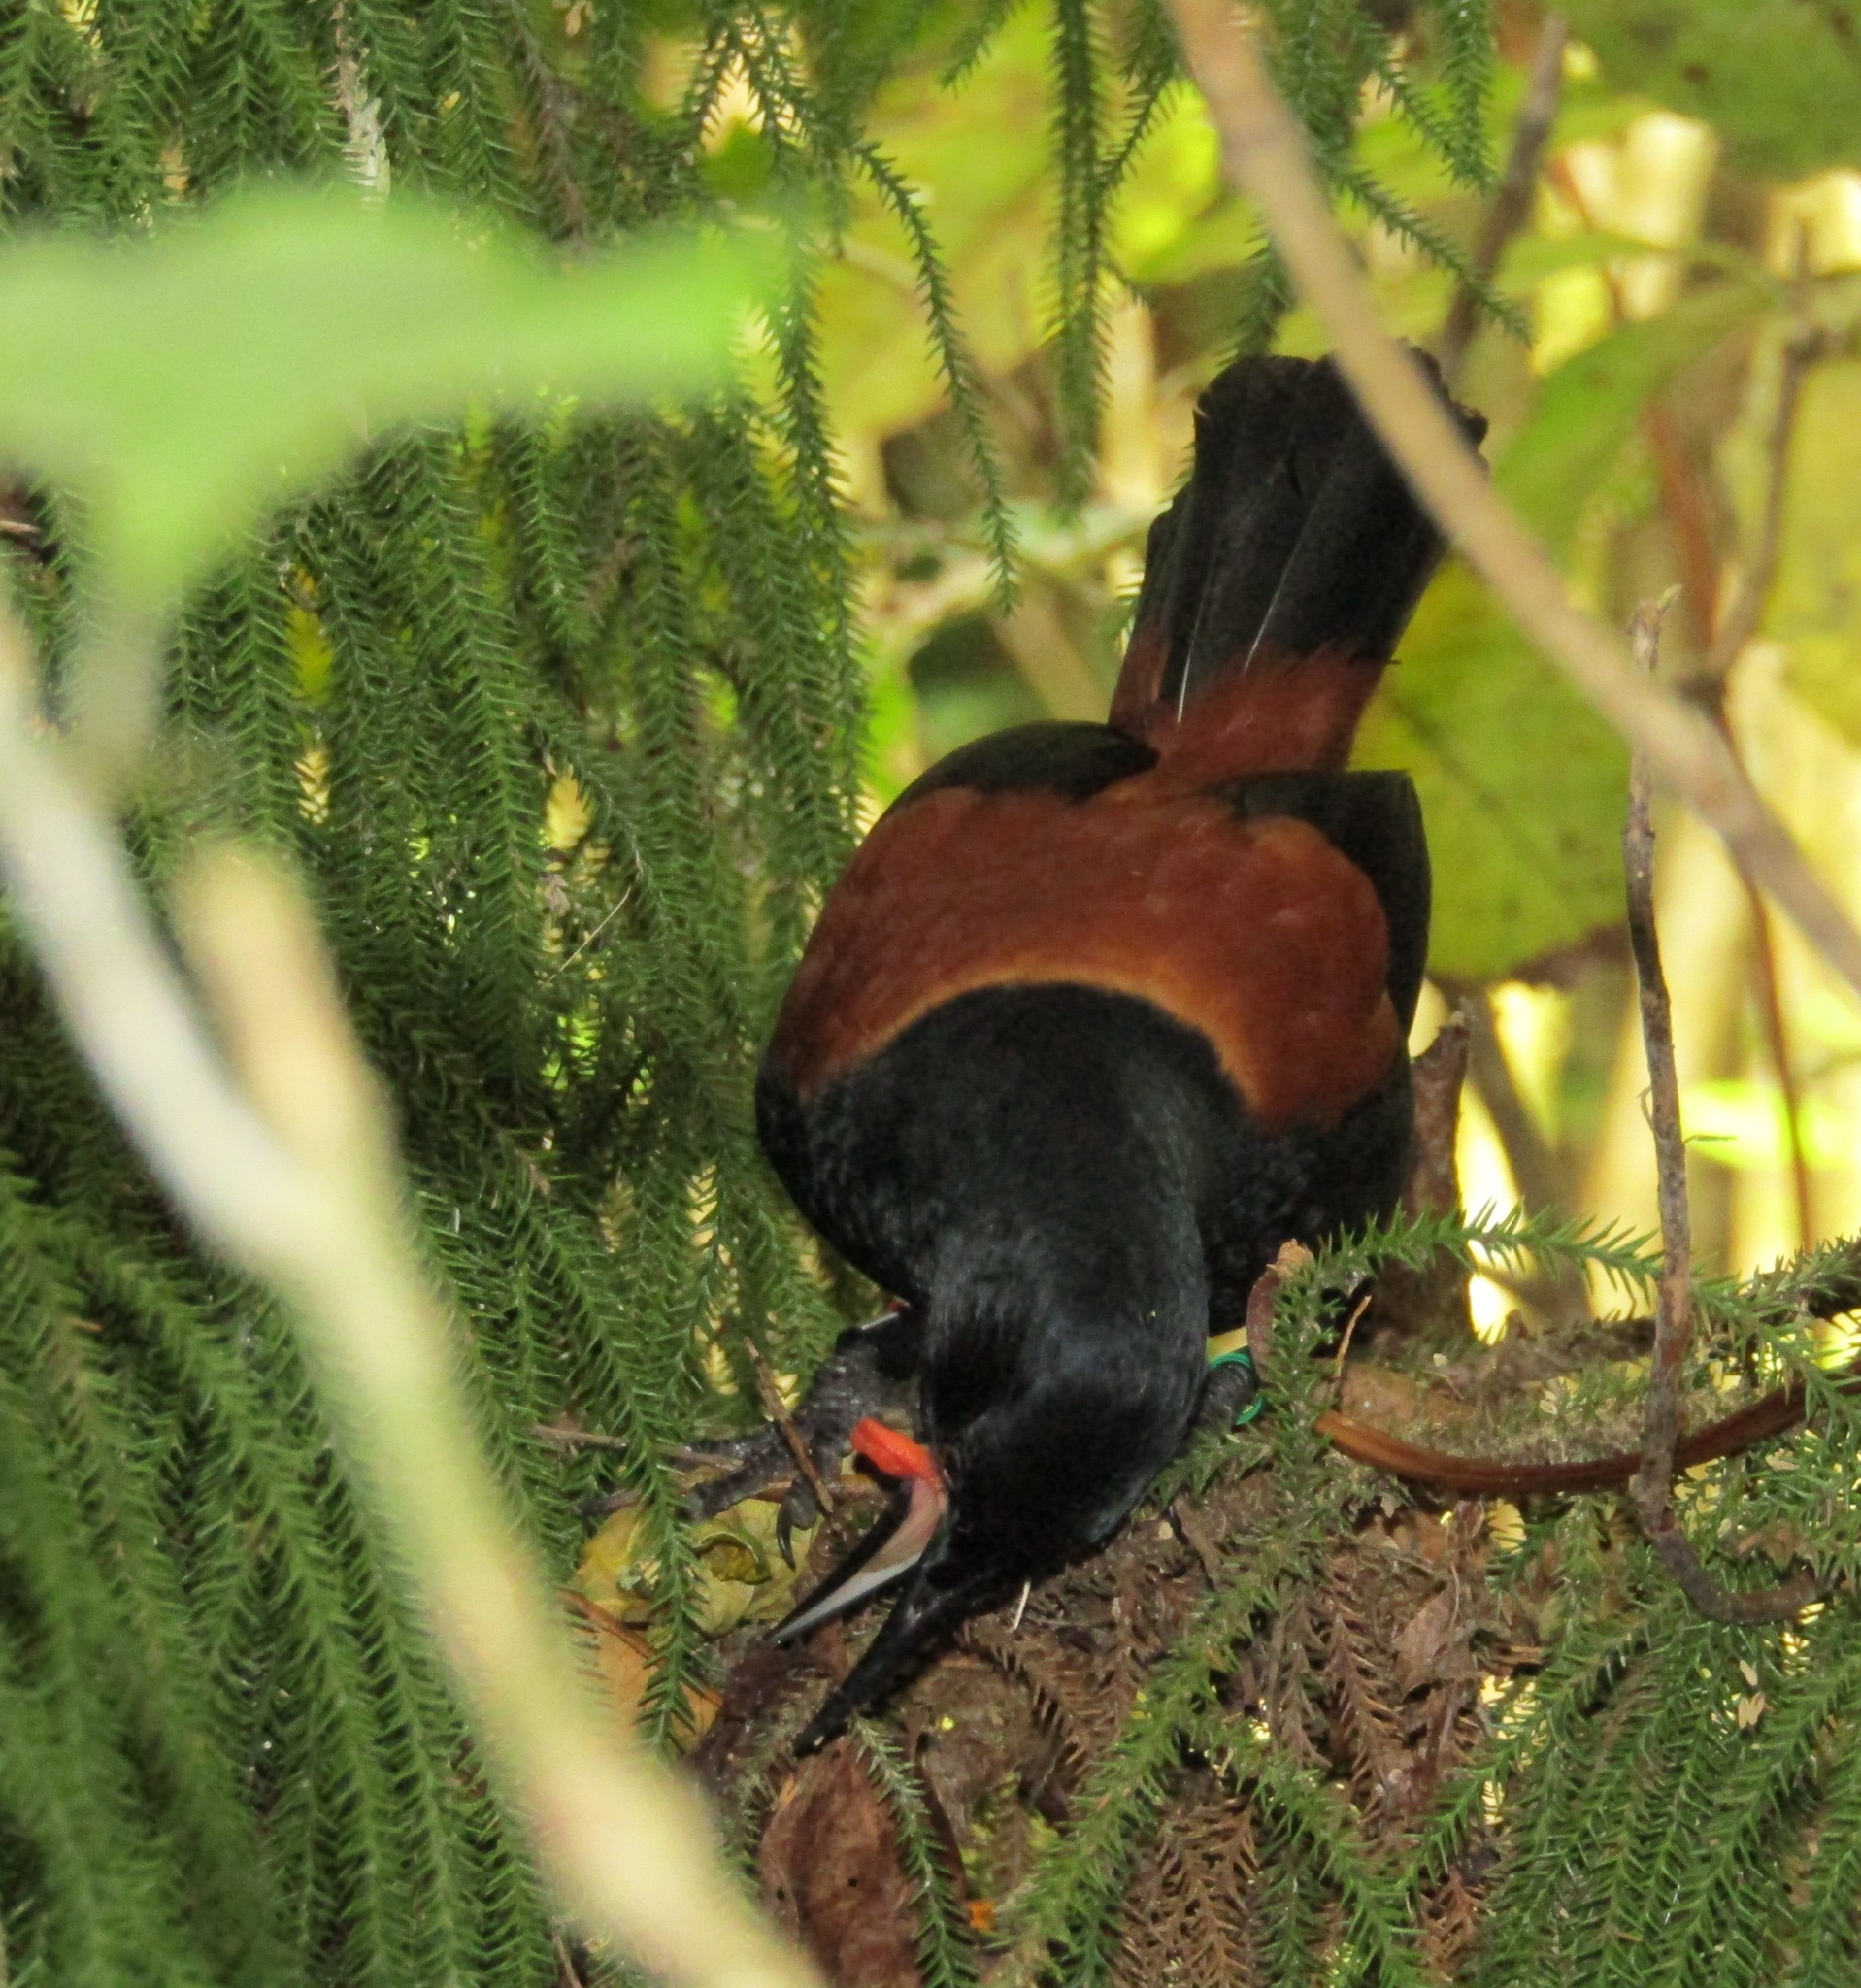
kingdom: Animalia
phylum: Chordata
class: Aves
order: Passeriformes
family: Callaeatidae
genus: Philesturnus
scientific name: Philesturnus carunculatus
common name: South island saddleback
